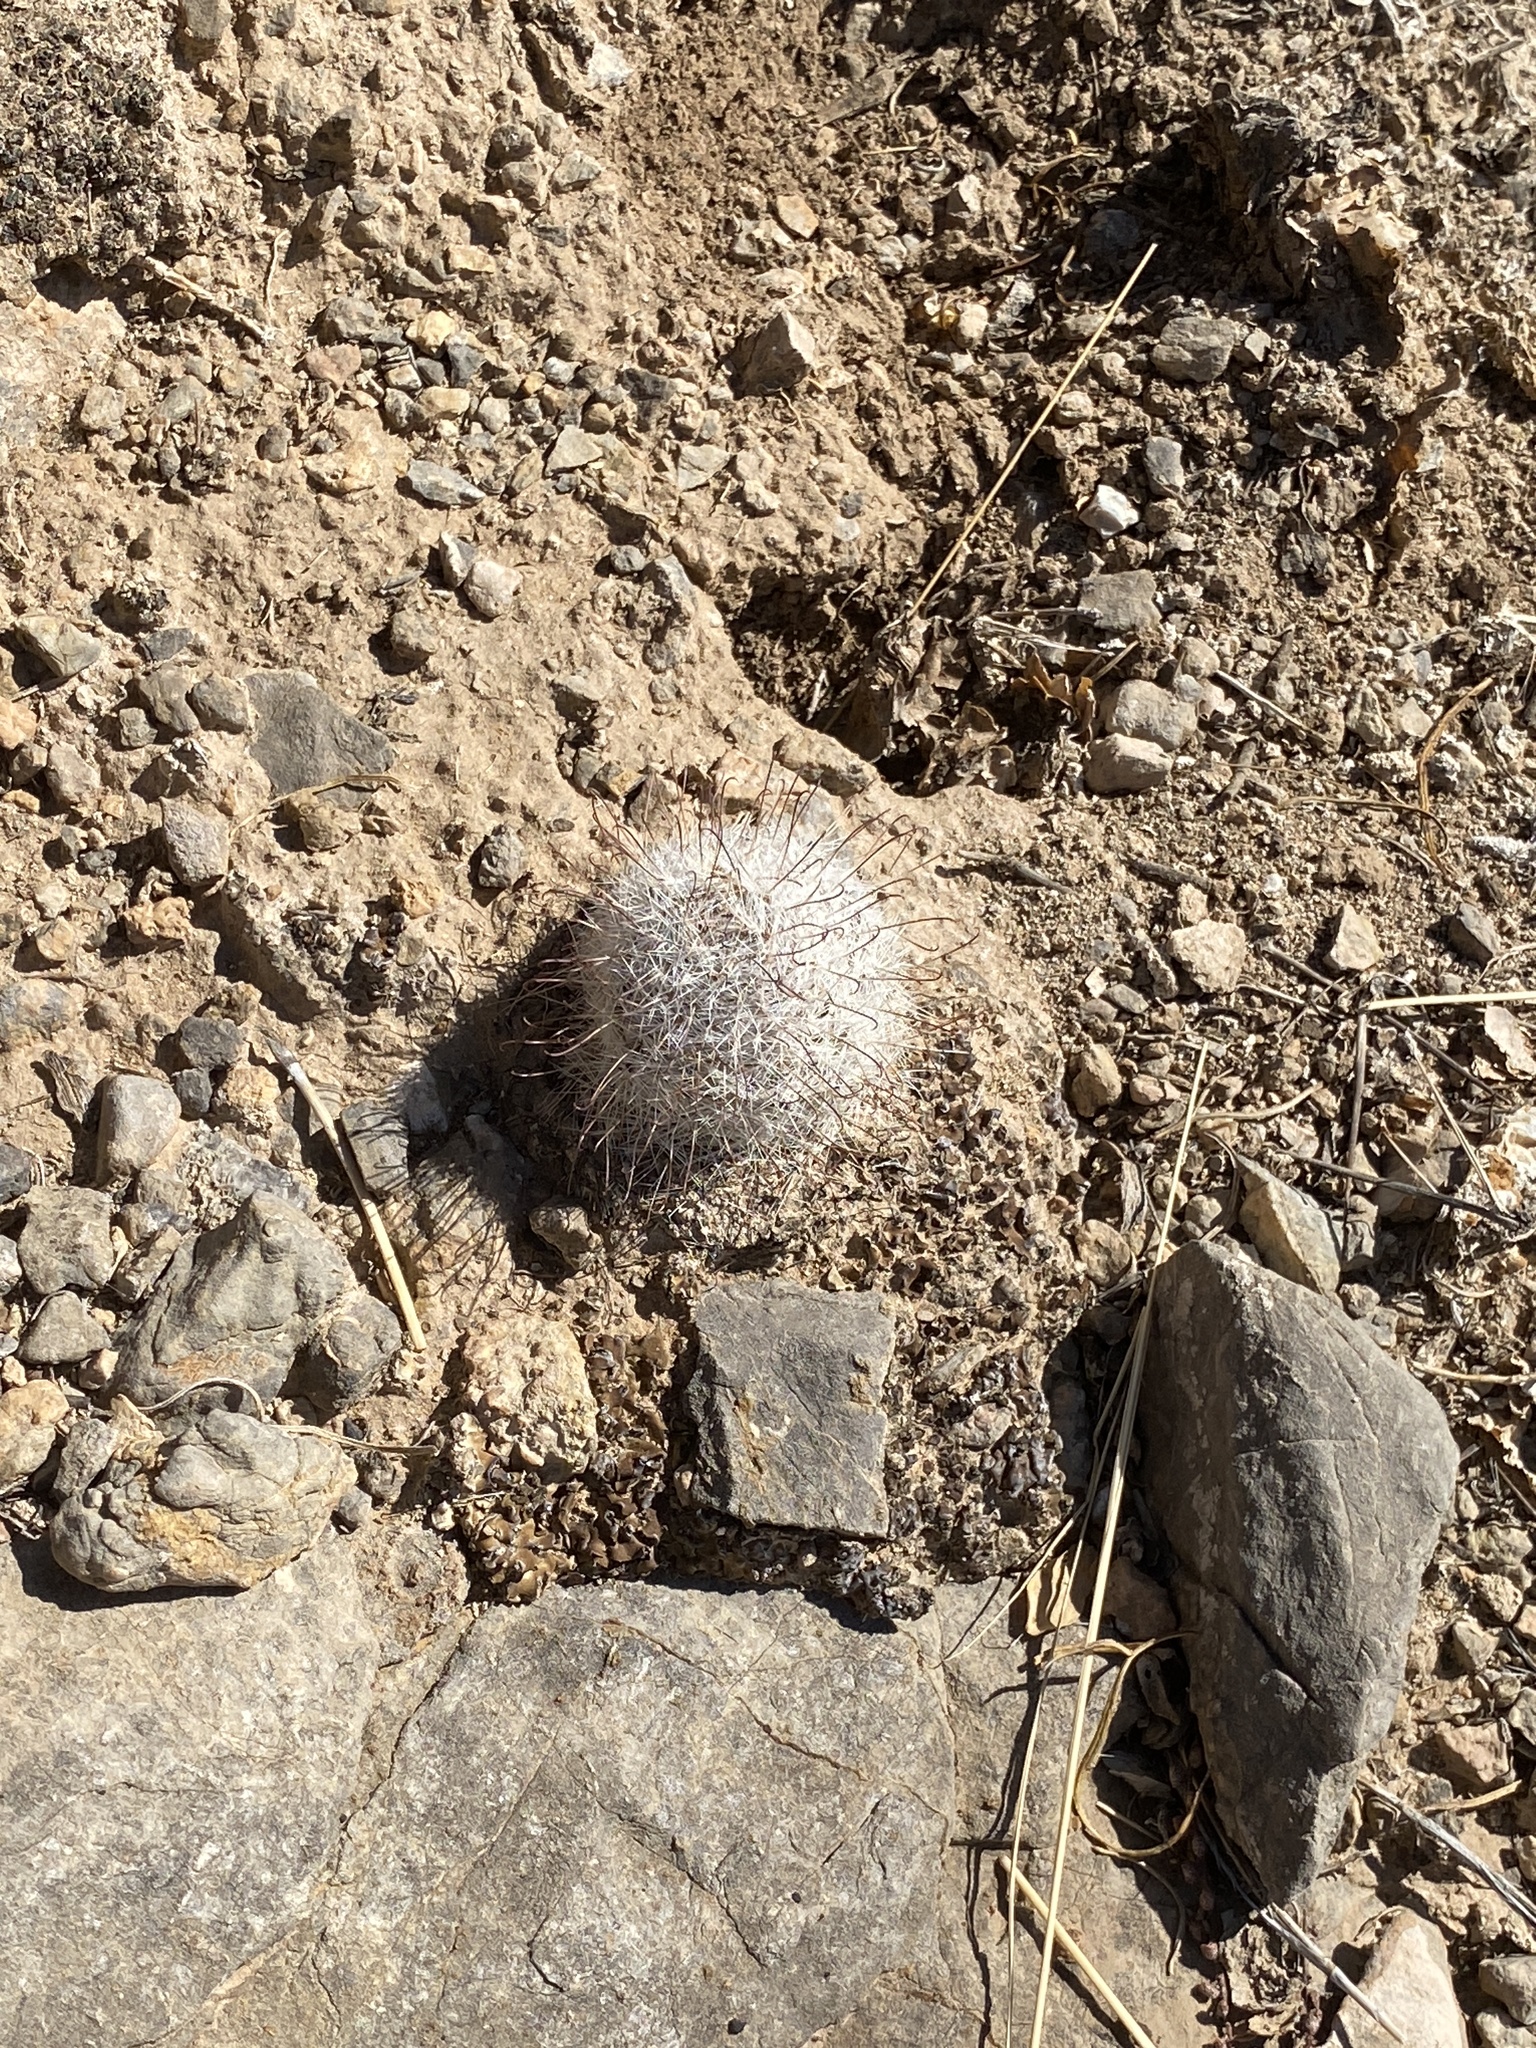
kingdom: Plantae
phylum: Tracheophyta
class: Magnoliopsida
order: Caryophyllales
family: Cactaceae
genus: Cochemiea
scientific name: Cochemiea grahamii
